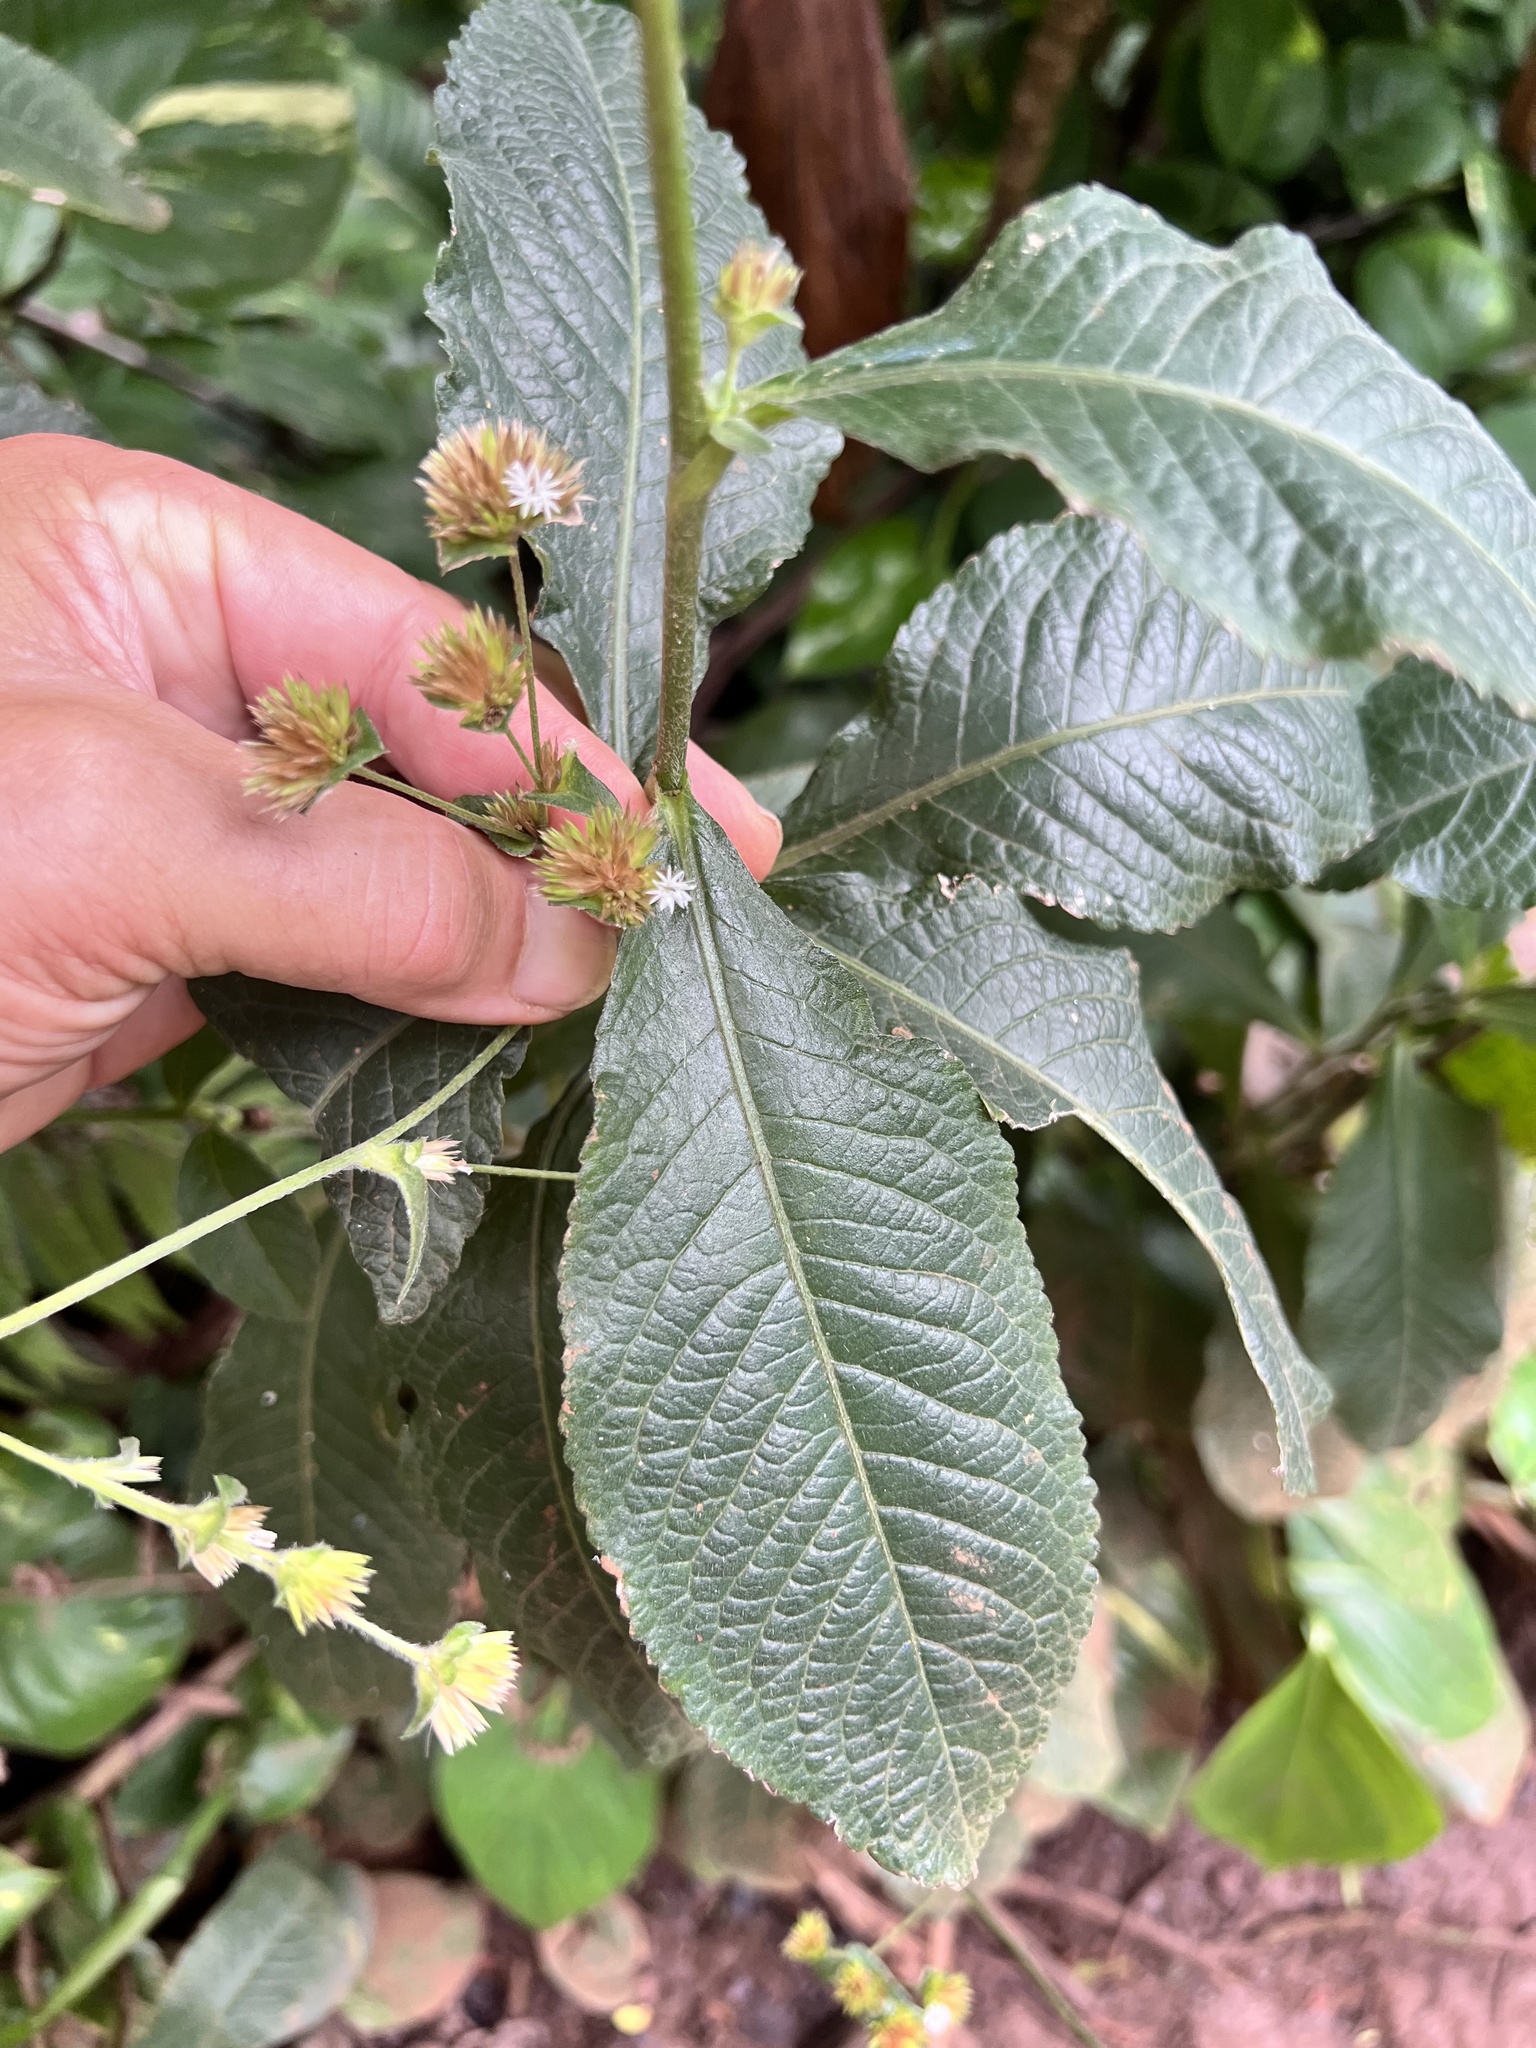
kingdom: Plantae
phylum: Tracheophyta
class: Magnoliopsida
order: Asterales
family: Asteraceae
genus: Elephantopus
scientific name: Elephantopus mollis
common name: Soft elephantsfoot
